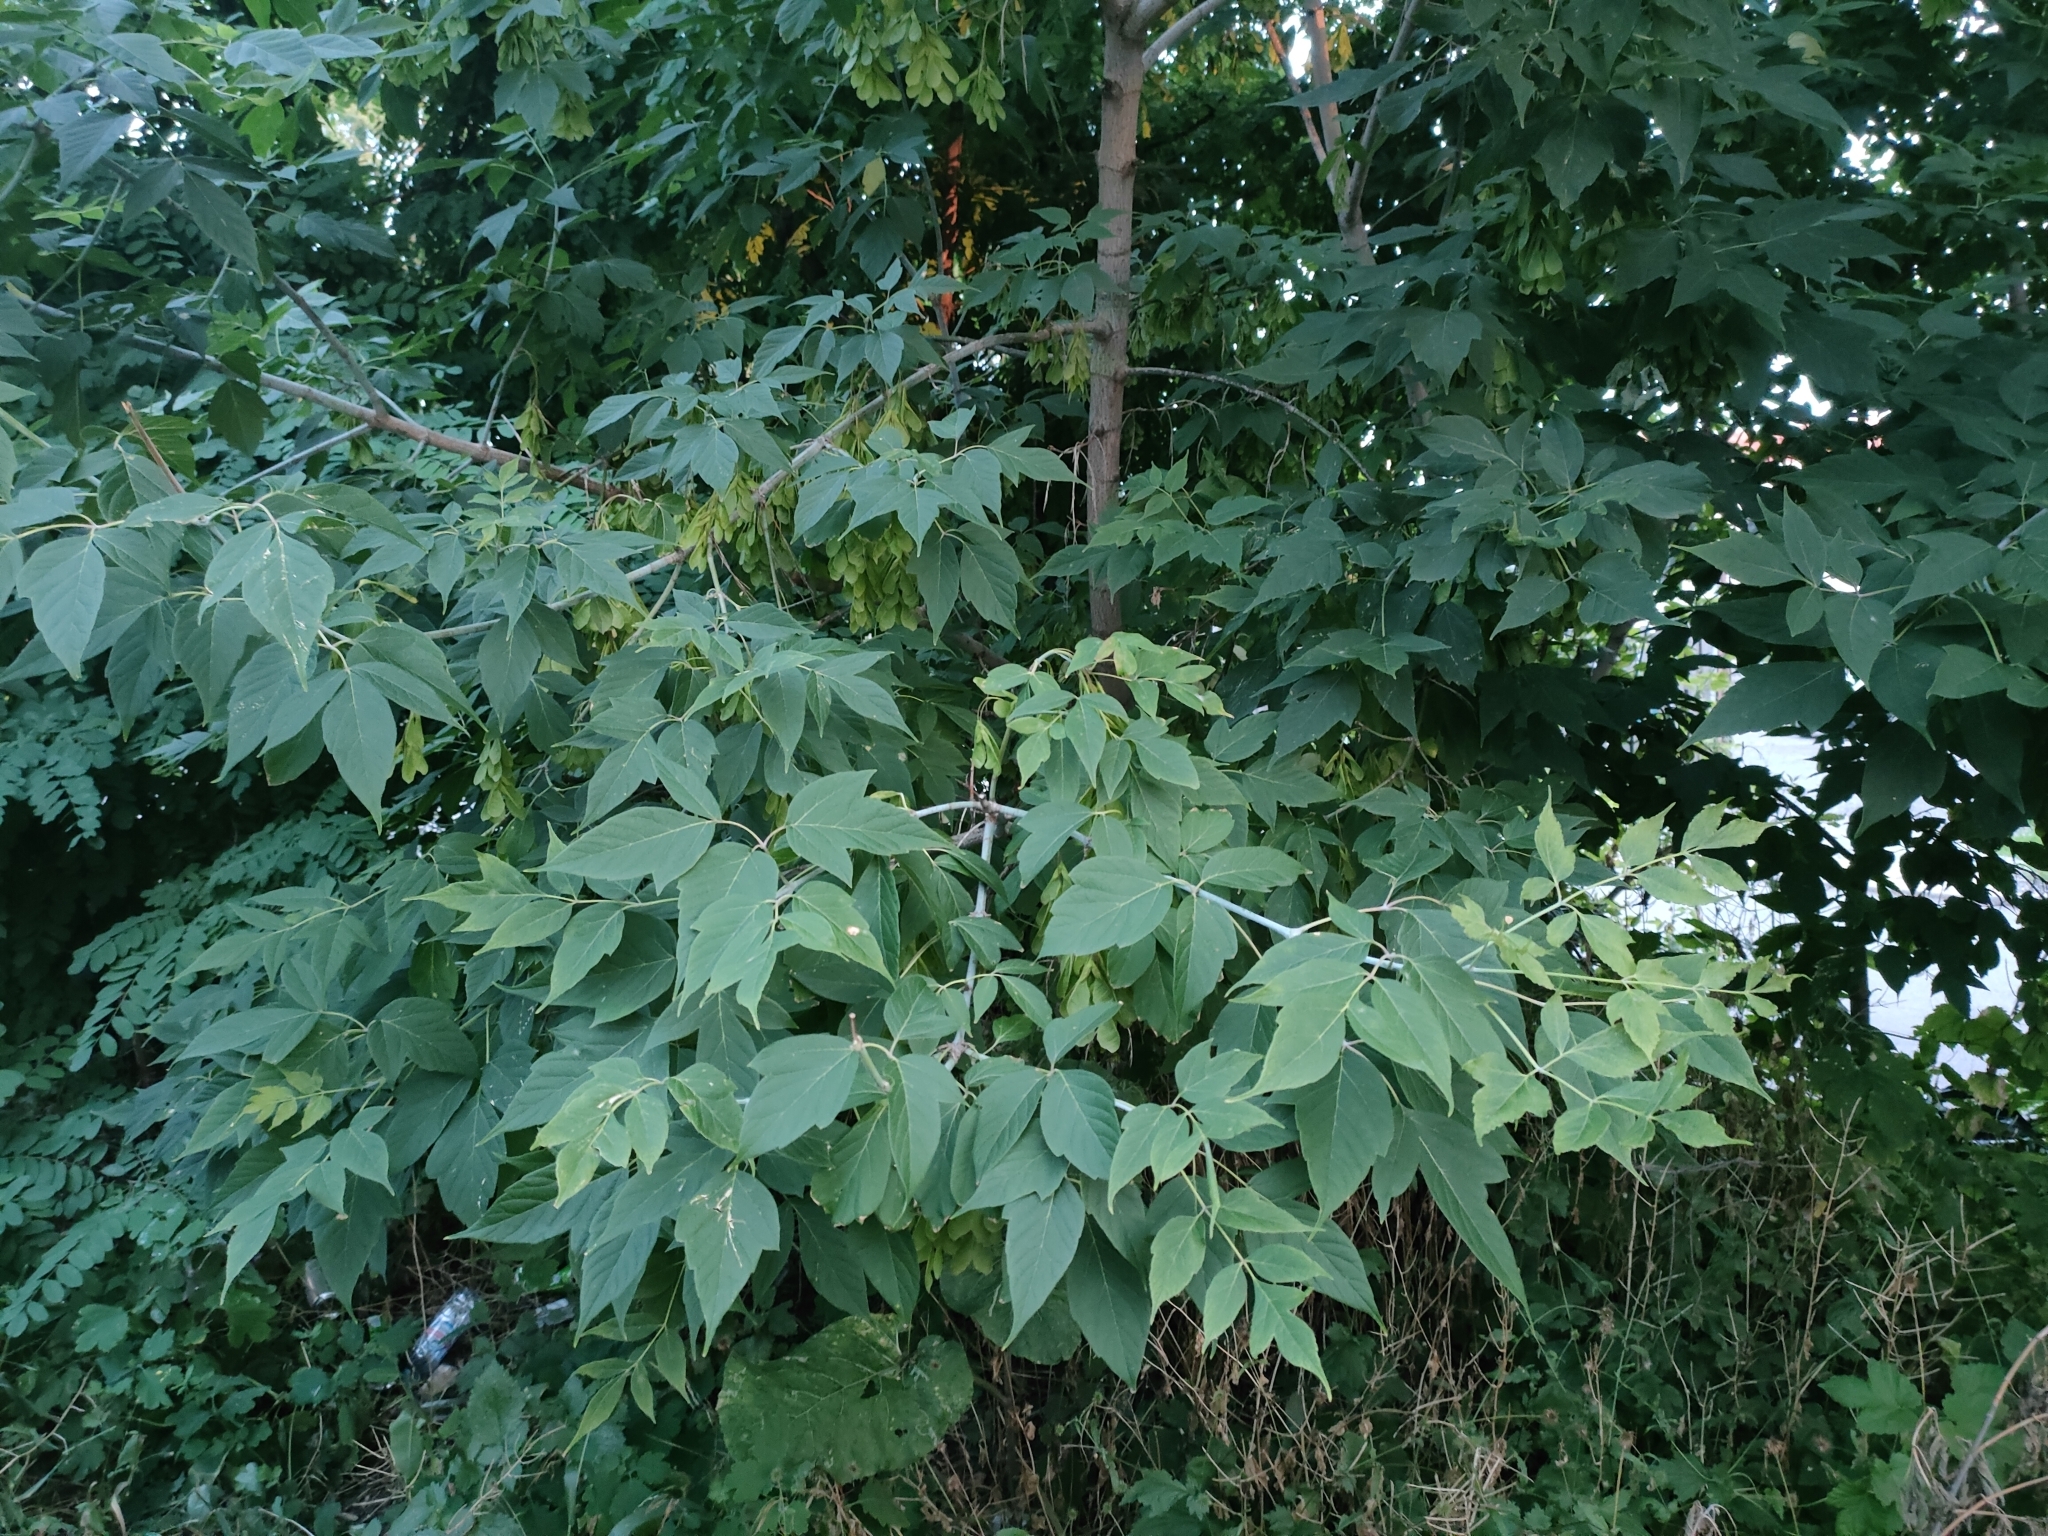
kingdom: Plantae
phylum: Tracheophyta
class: Magnoliopsida
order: Sapindales
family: Sapindaceae
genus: Acer
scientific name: Acer negundo
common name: Ashleaf maple
